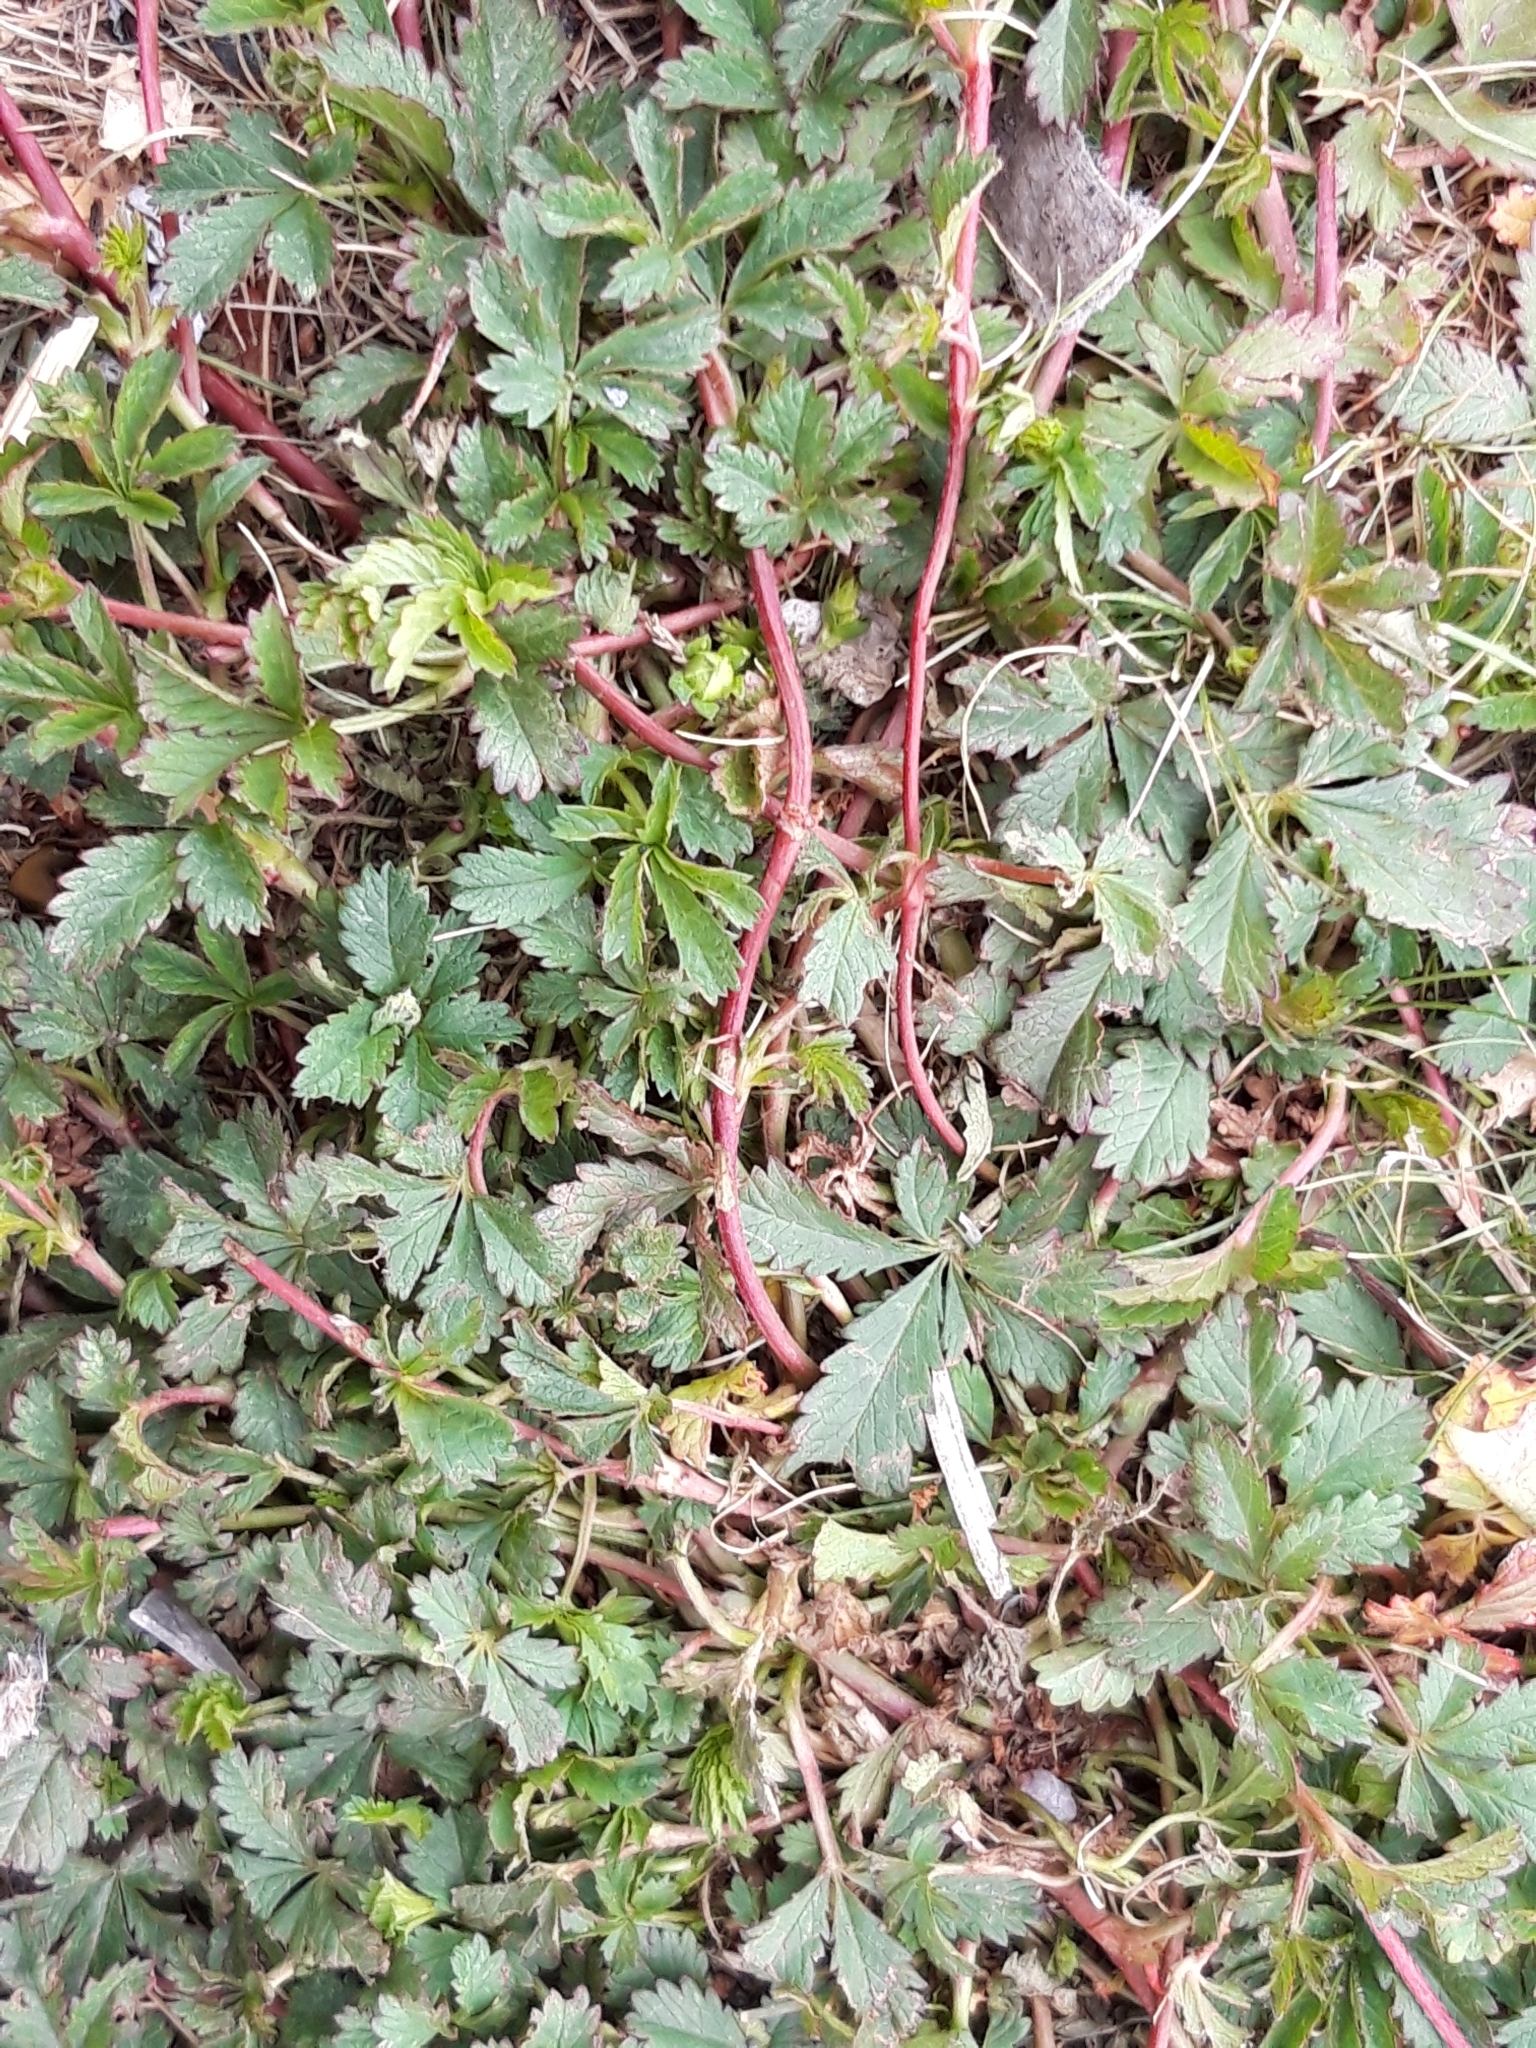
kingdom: Plantae
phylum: Tracheophyta
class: Magnoliopsida
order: Rosales
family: Rosaceae
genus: Potentilla
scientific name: Potentilla reptans
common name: Creeping cinquefoil
